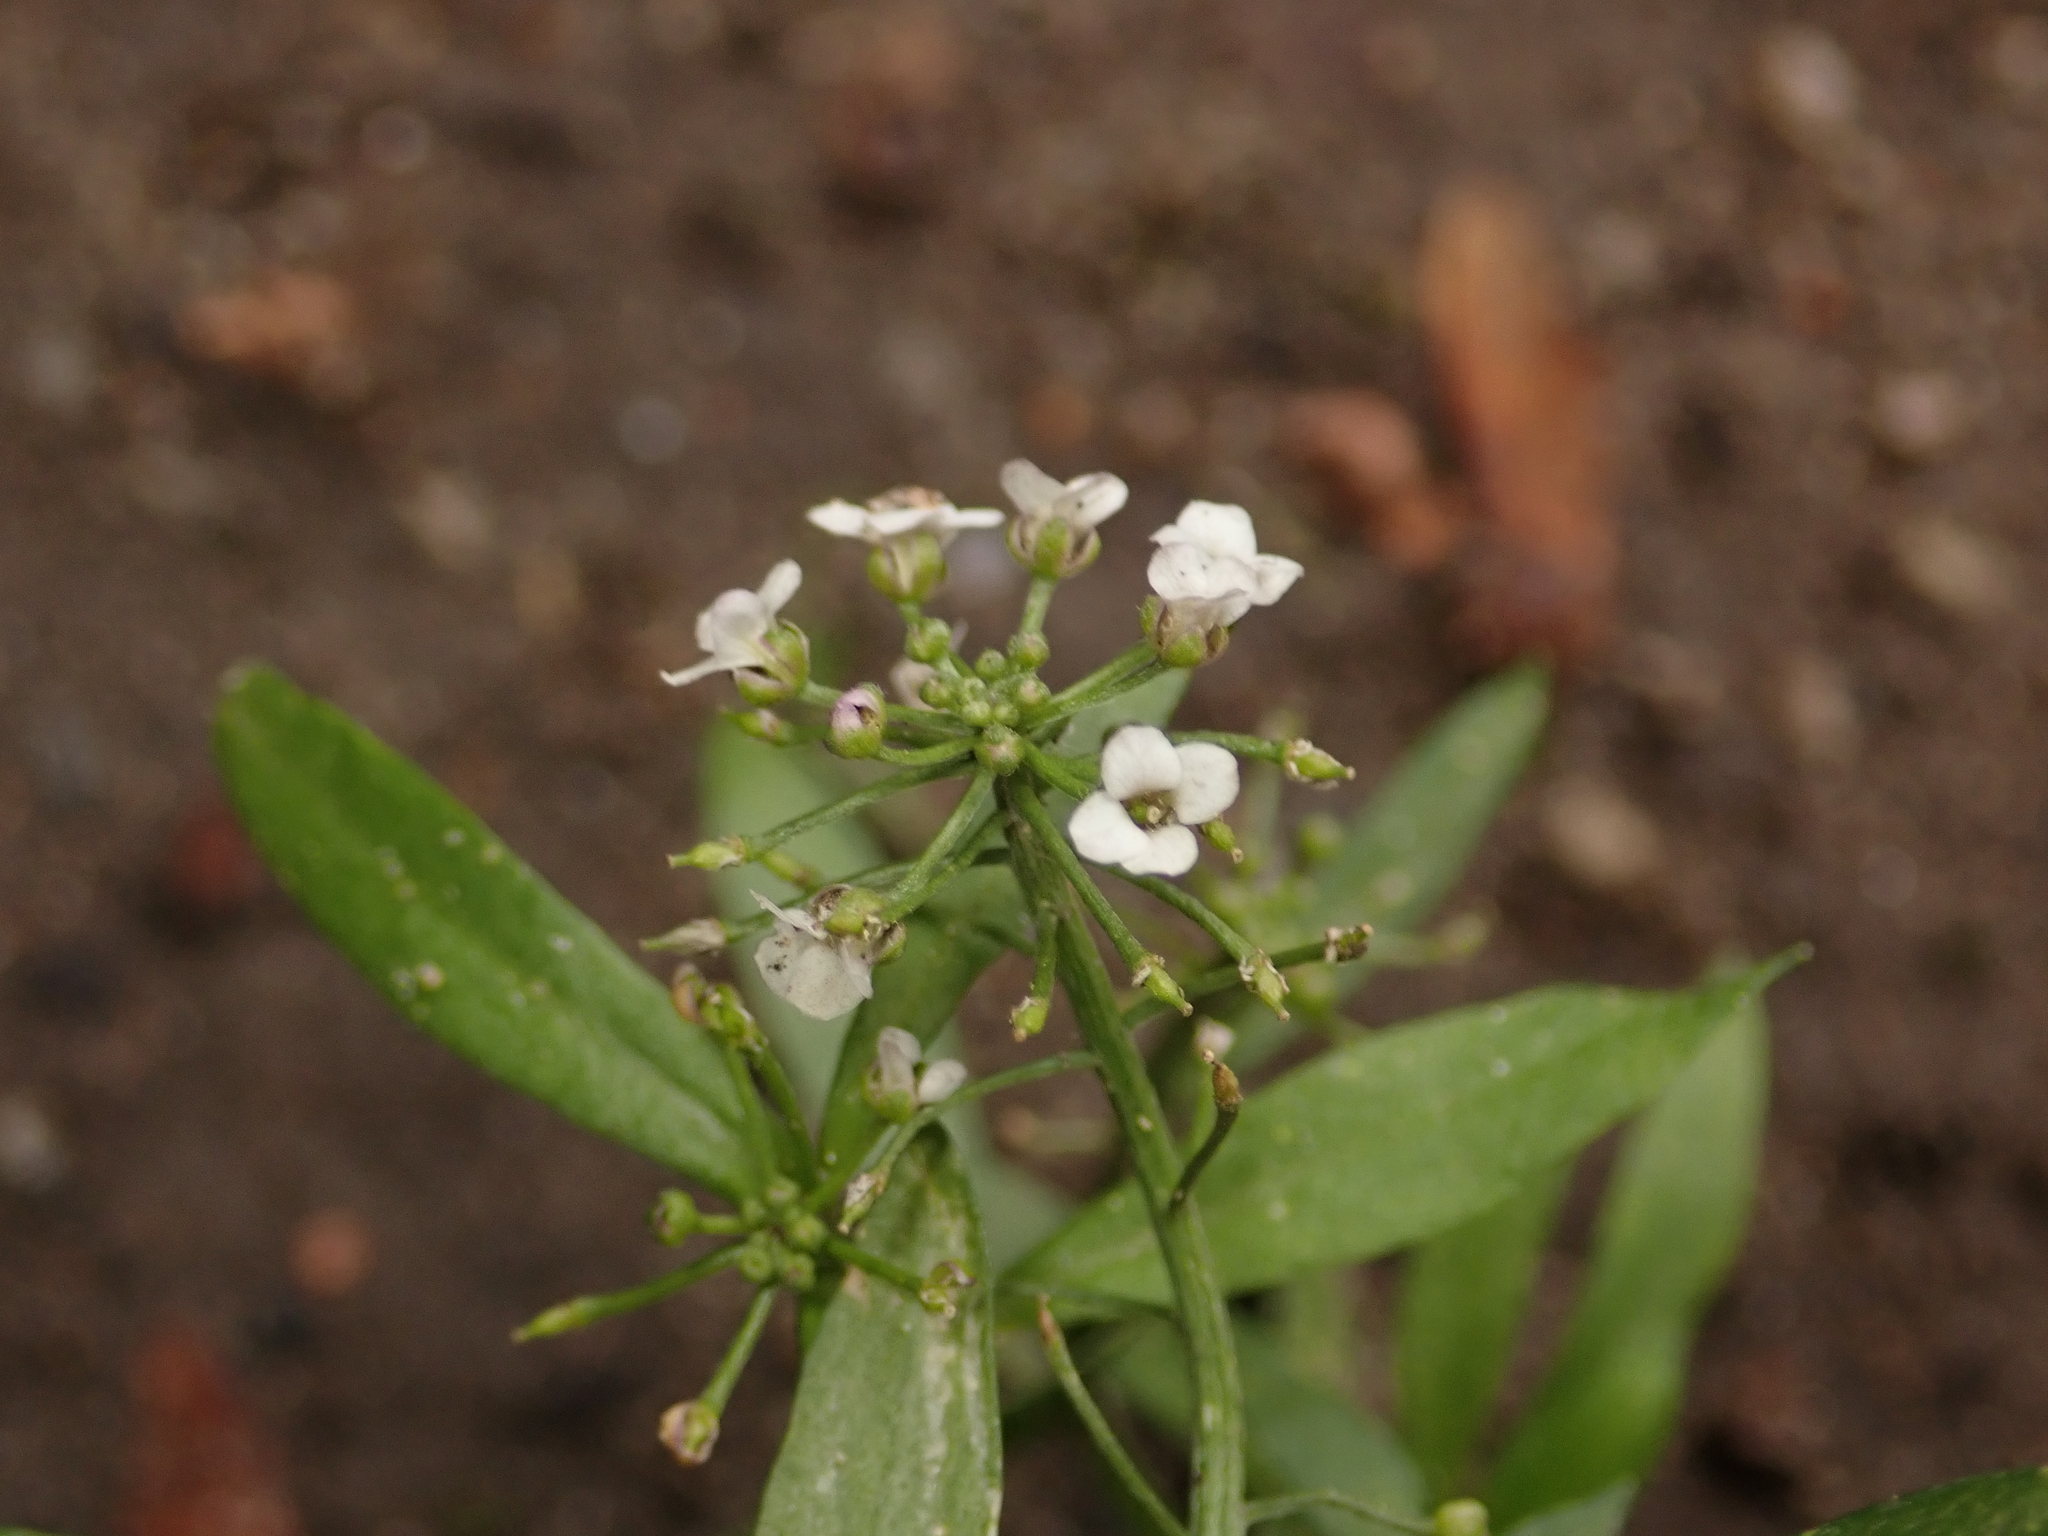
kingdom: Plantae
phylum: Tracheophyta
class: Magnoliopsida
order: Brassicales
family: Brassicaceae
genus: Lobularia
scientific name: Lobularia maritima
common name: Sweet alison
